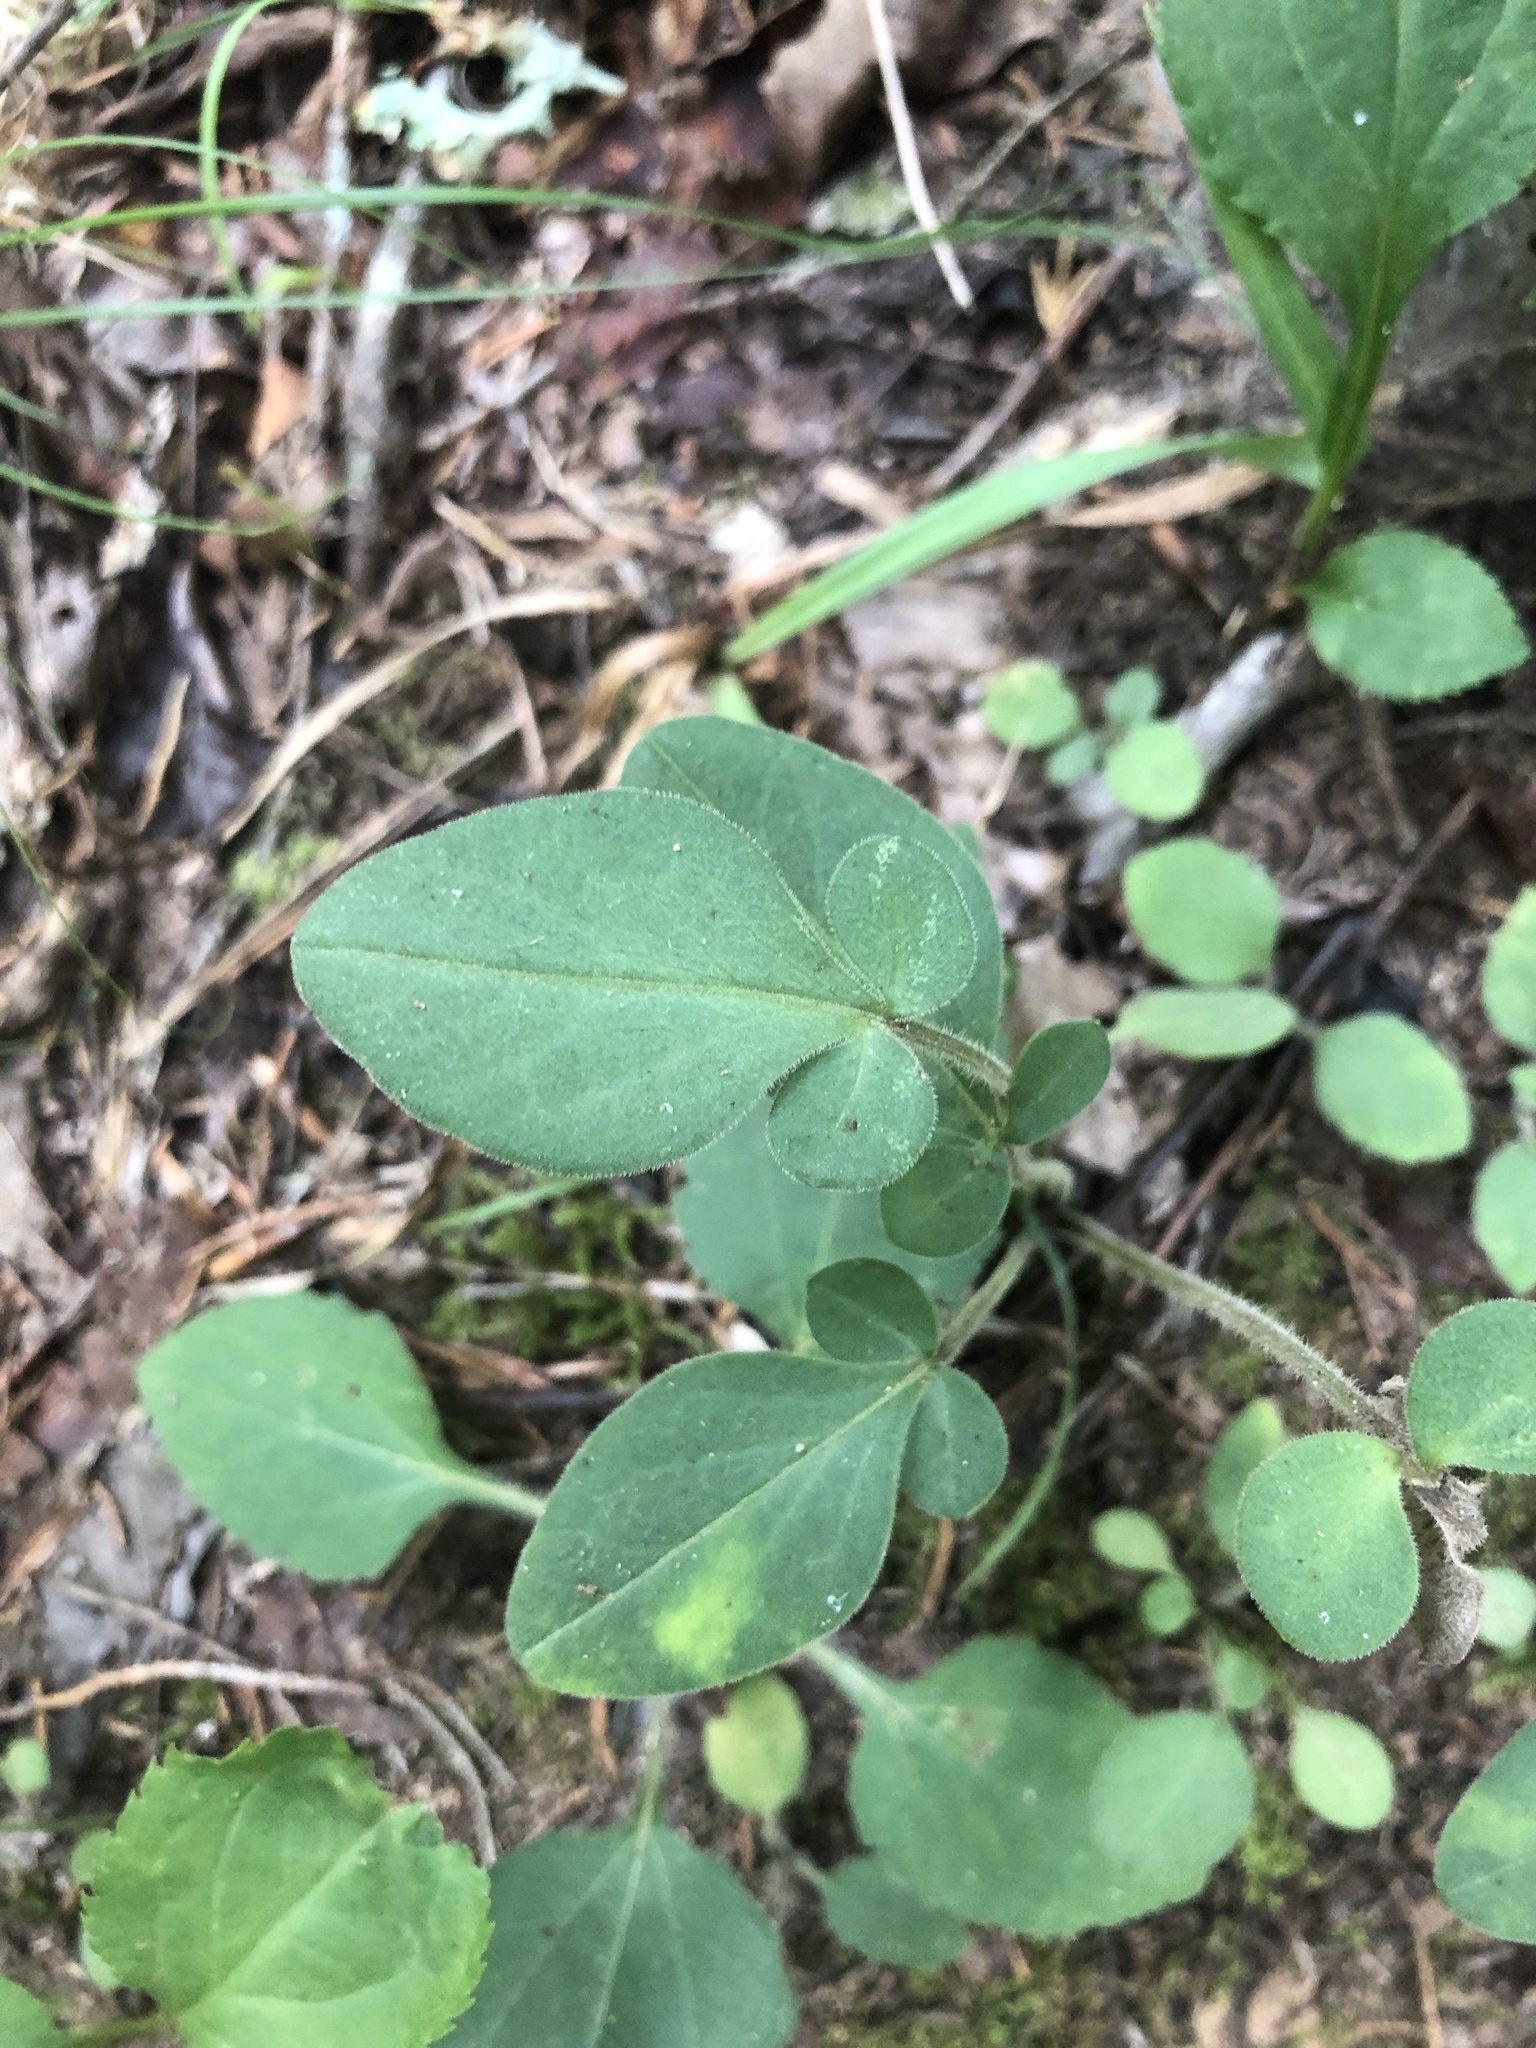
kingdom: Plantae
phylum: Tracheophyta
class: Magnoliopsida
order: Asterales
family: Asteraceae
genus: Coreopsis
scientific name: Coreopsis auriculata
